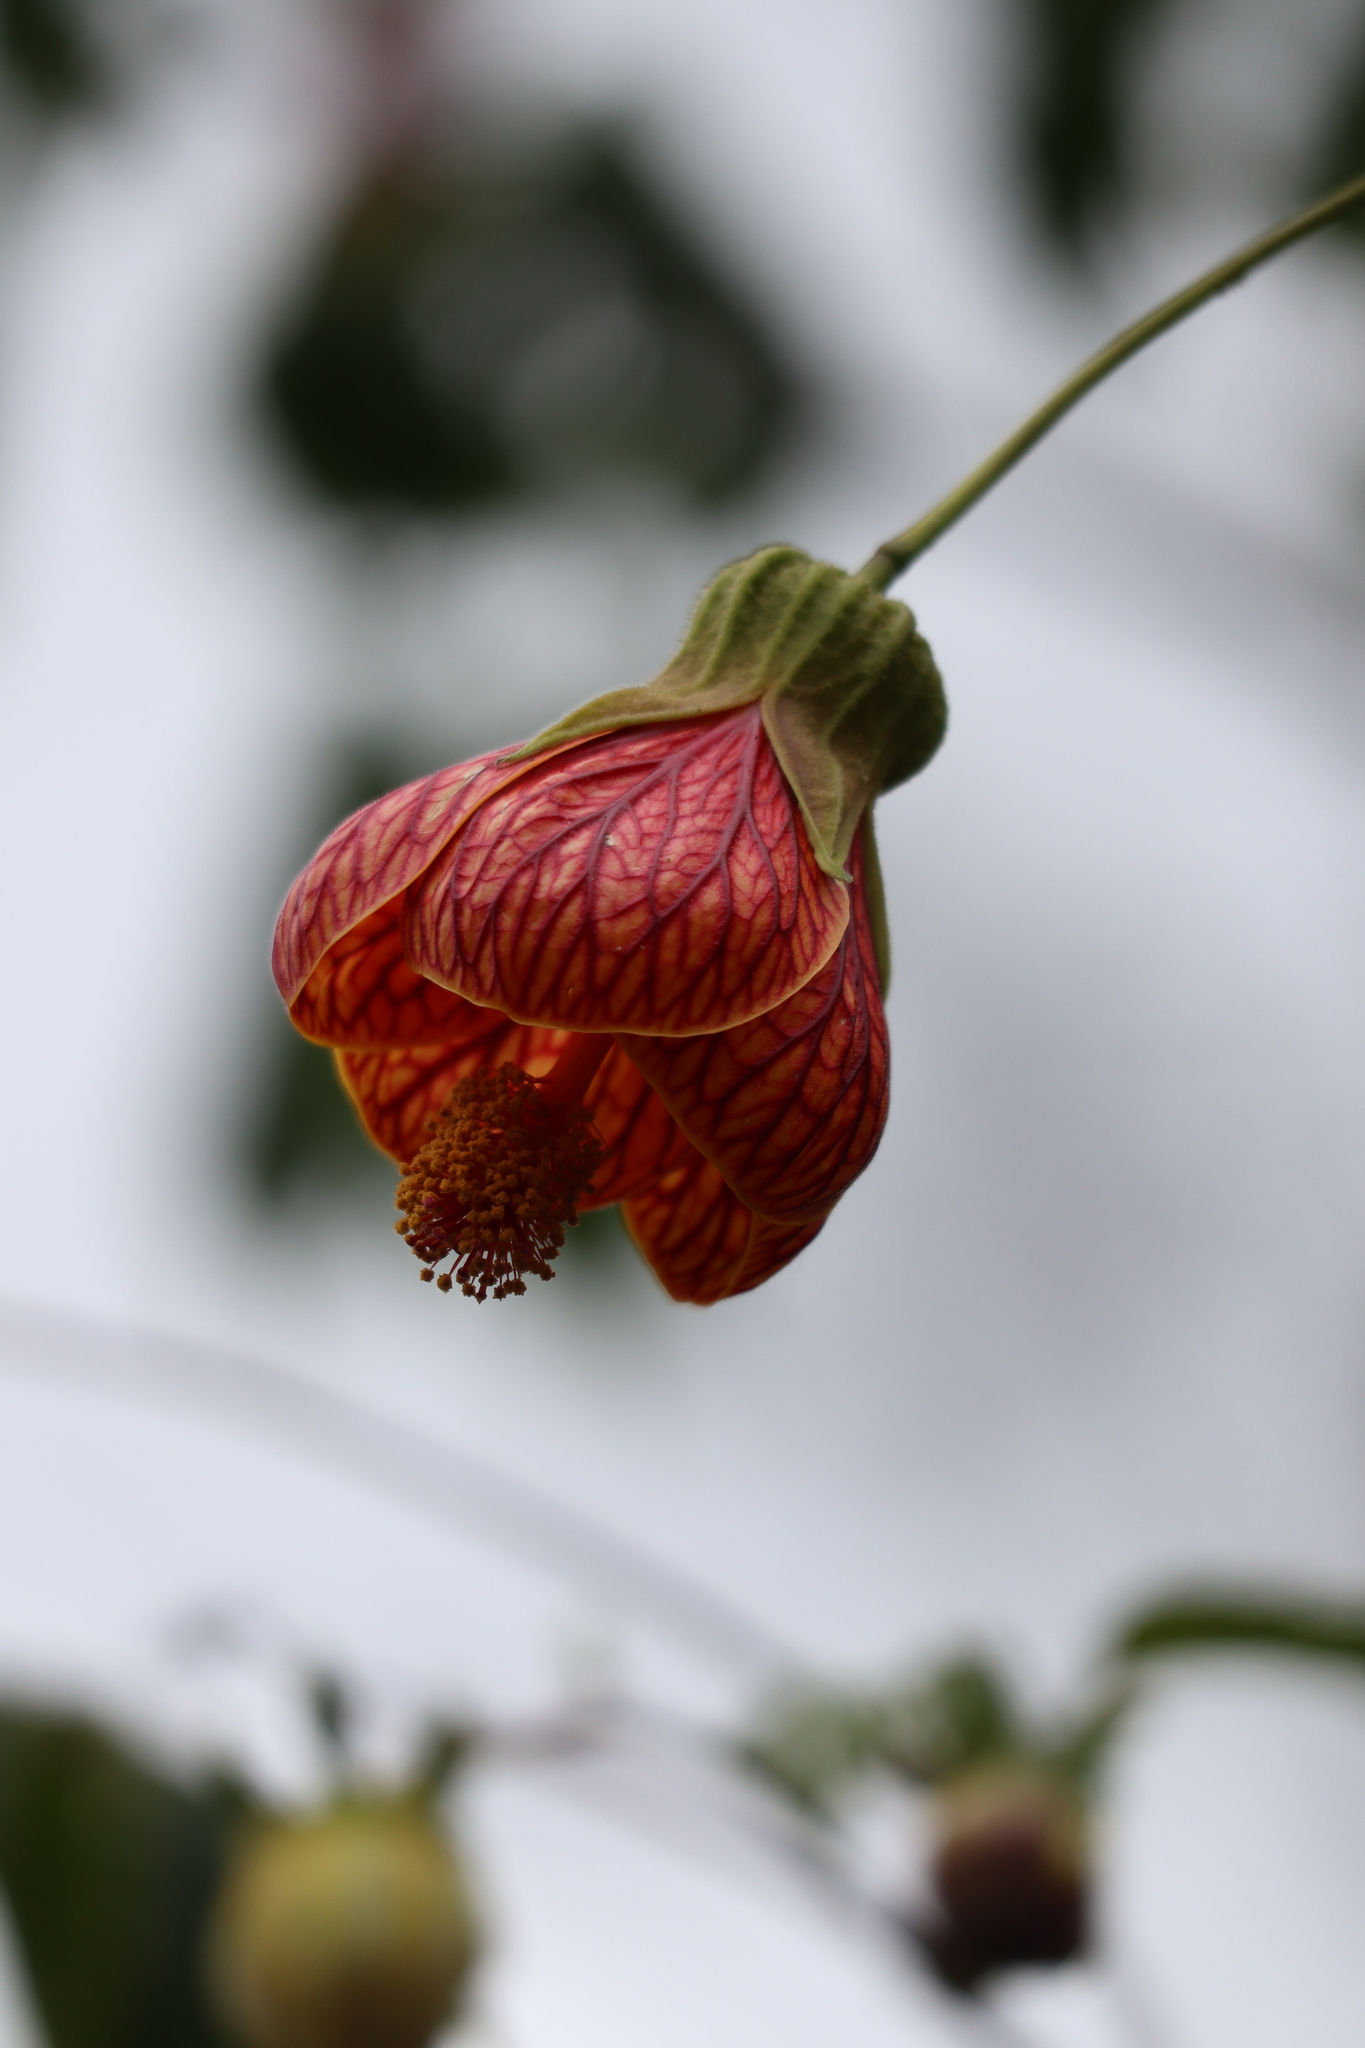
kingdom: Plantae
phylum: Tracheophyta
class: Magnoliopsida
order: Malvales
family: Malvaceae
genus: Callianthe
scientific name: Callianthe picta
